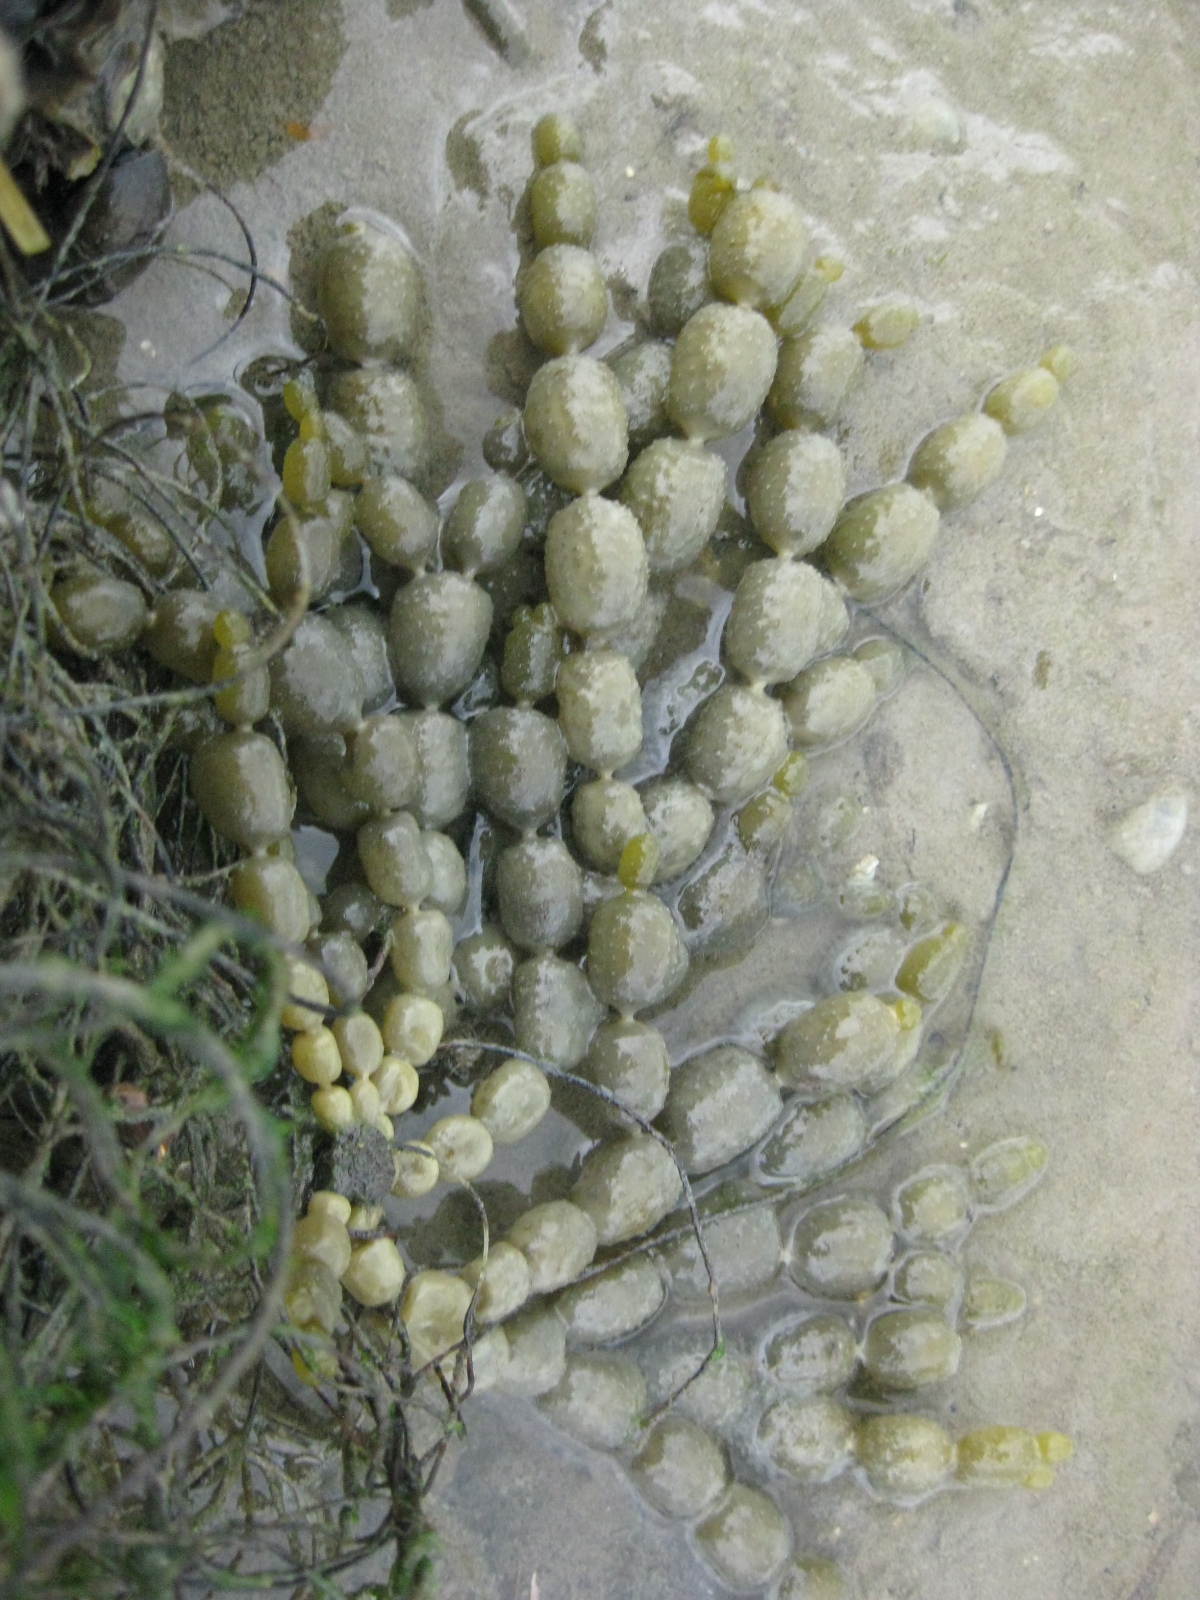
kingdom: Chromista
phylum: Ochrophyta
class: Phaeophyceae
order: Fucales
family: Hormosiraceae
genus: Hormosira
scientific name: Hormosira banksii
